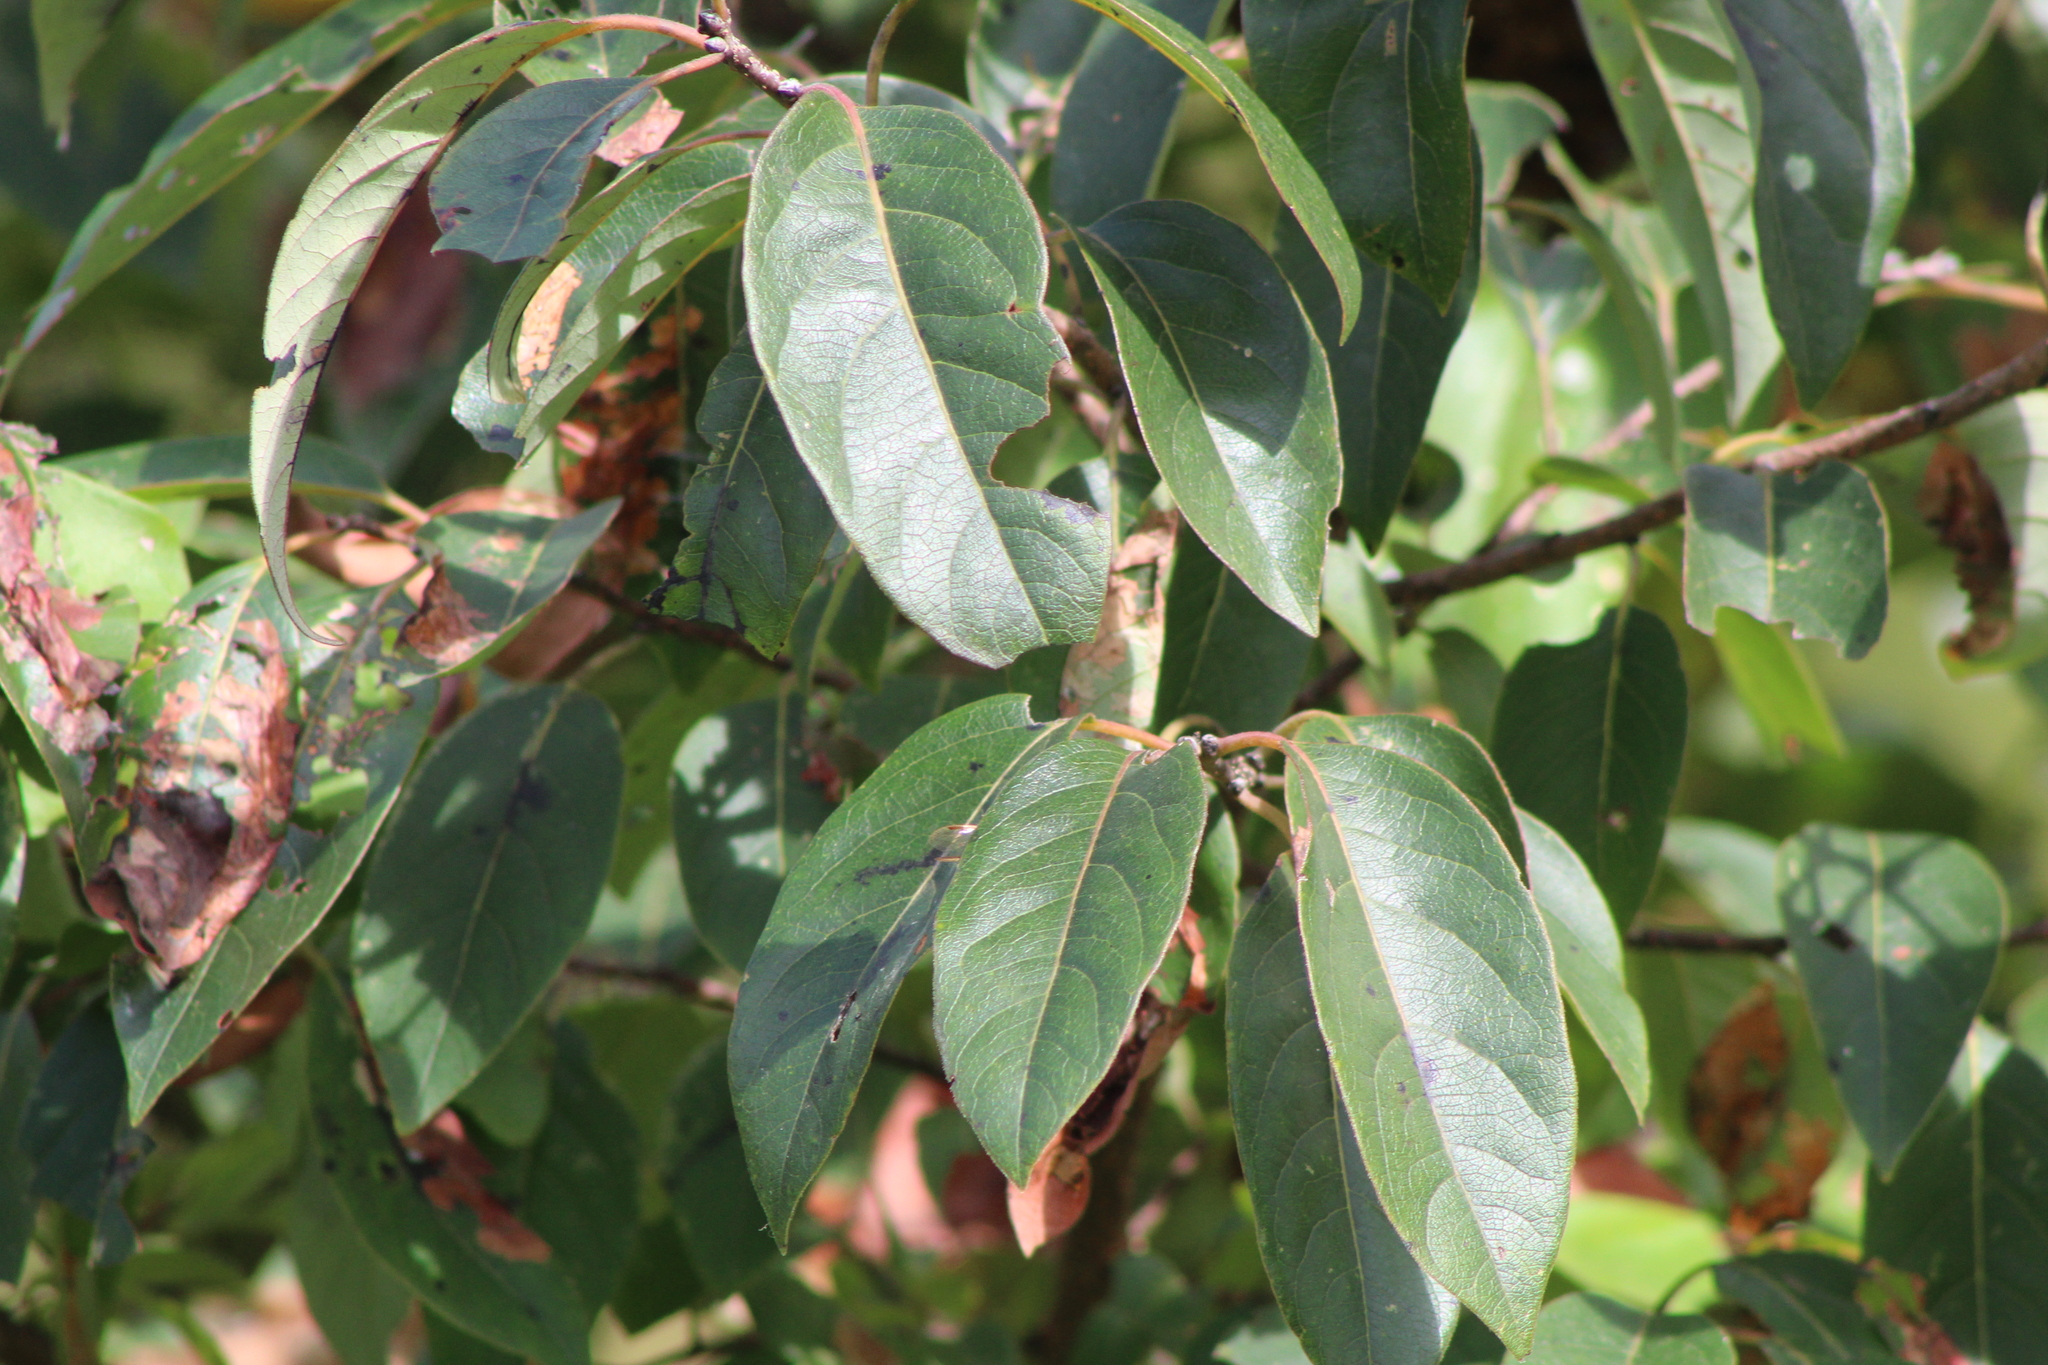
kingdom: Plantae
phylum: Tracheophyta
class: Magnoliopsida
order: Ericales
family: Ebenaceae
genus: Diospyros
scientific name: Diospyros virginiana
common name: Persimmon
